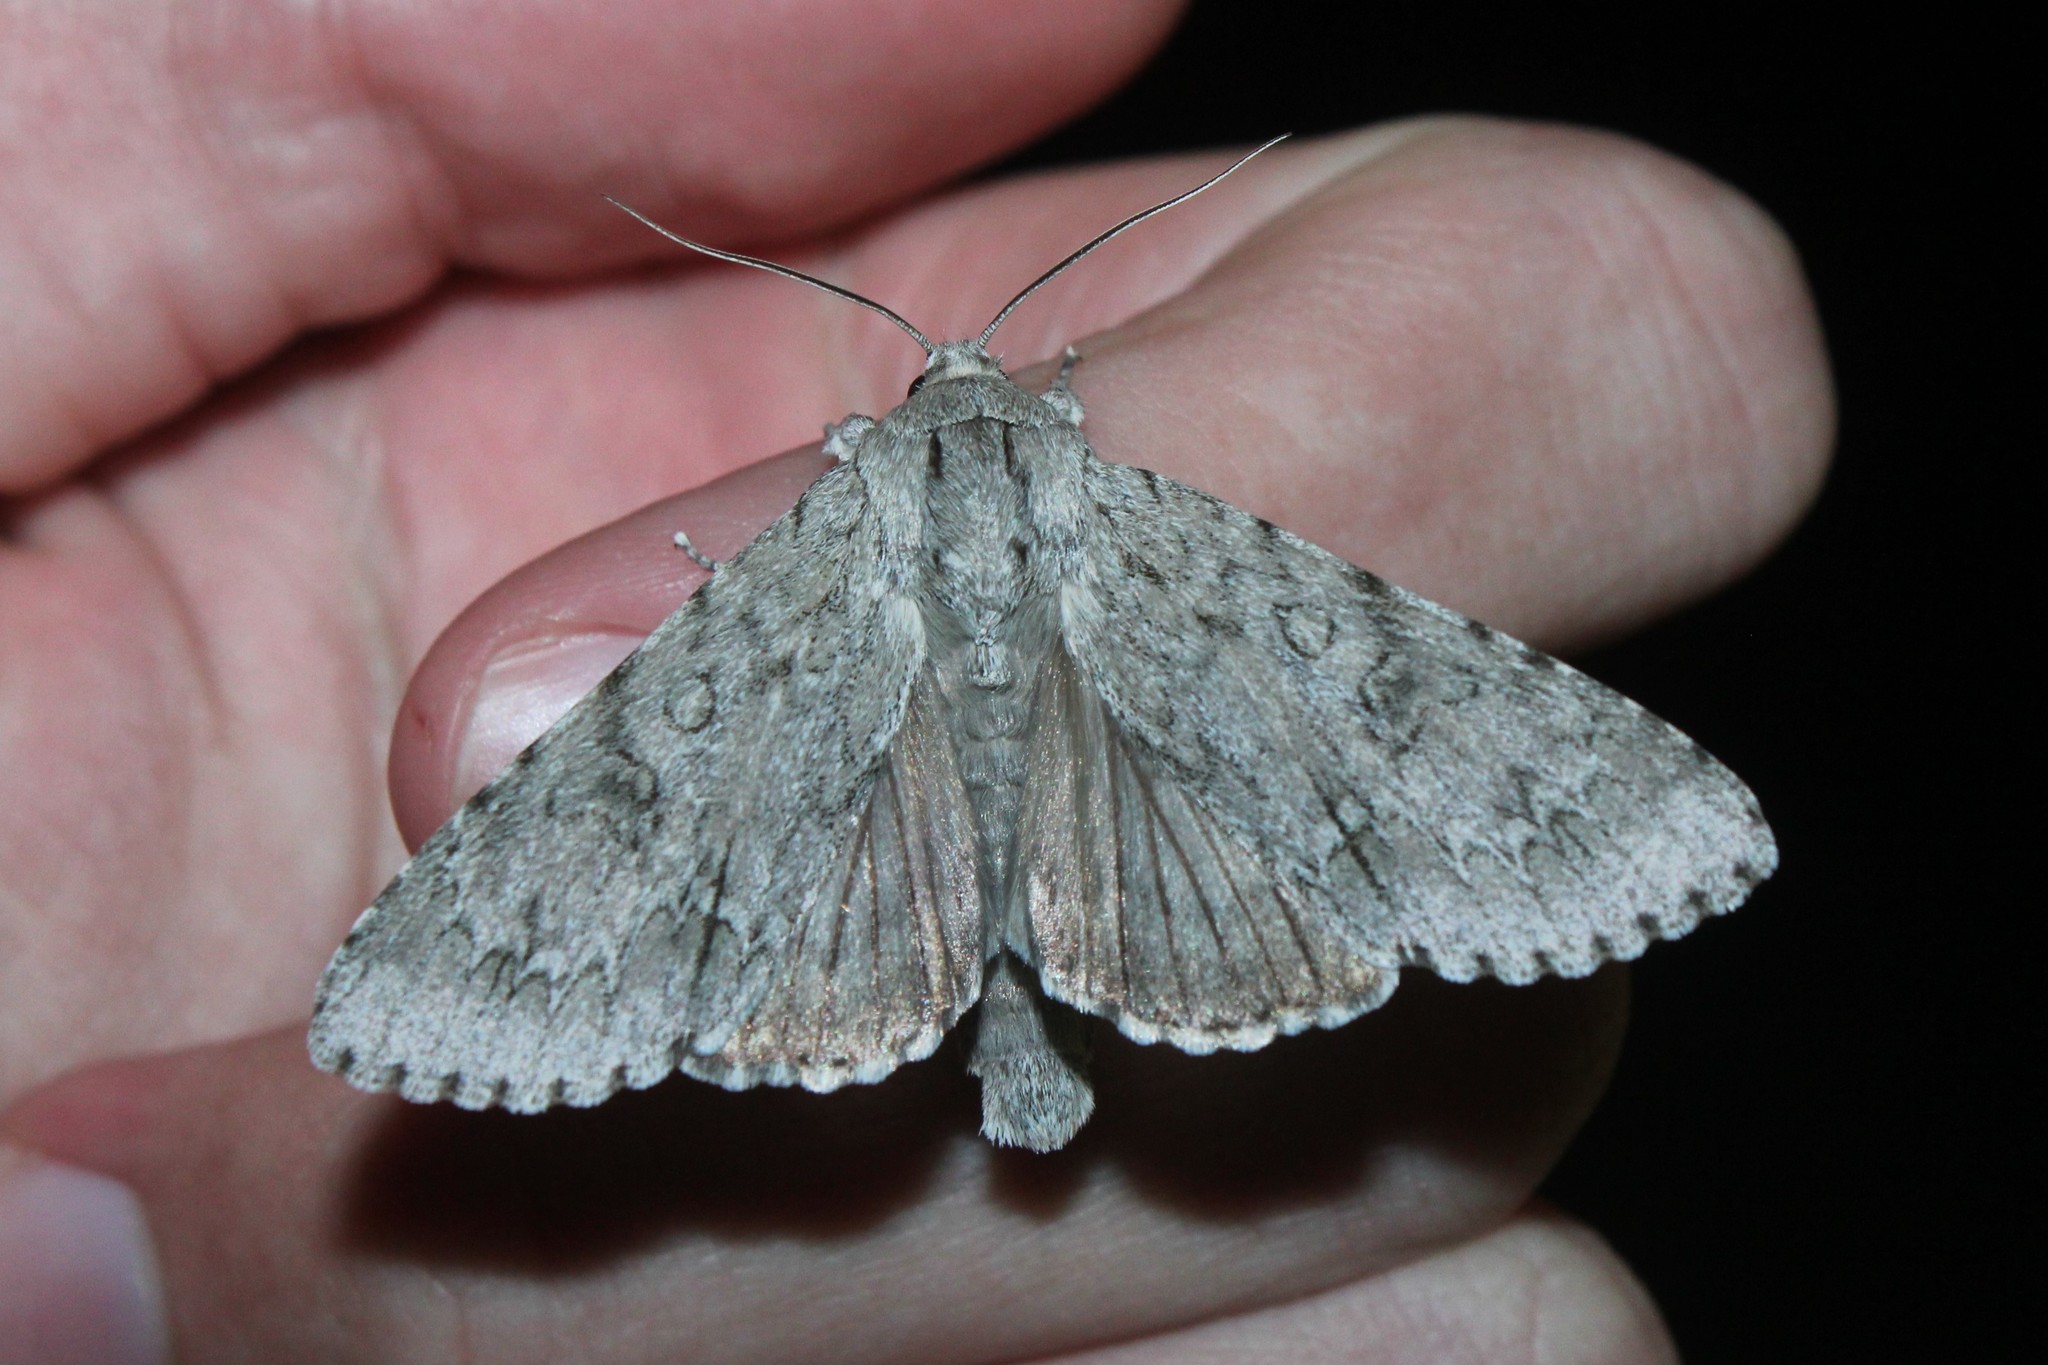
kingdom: Animalia
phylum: Arthropoda
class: Insecta
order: Lepidoptera
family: Noctuidae
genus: Acronicta
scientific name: Acronicta americana
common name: American dagger
